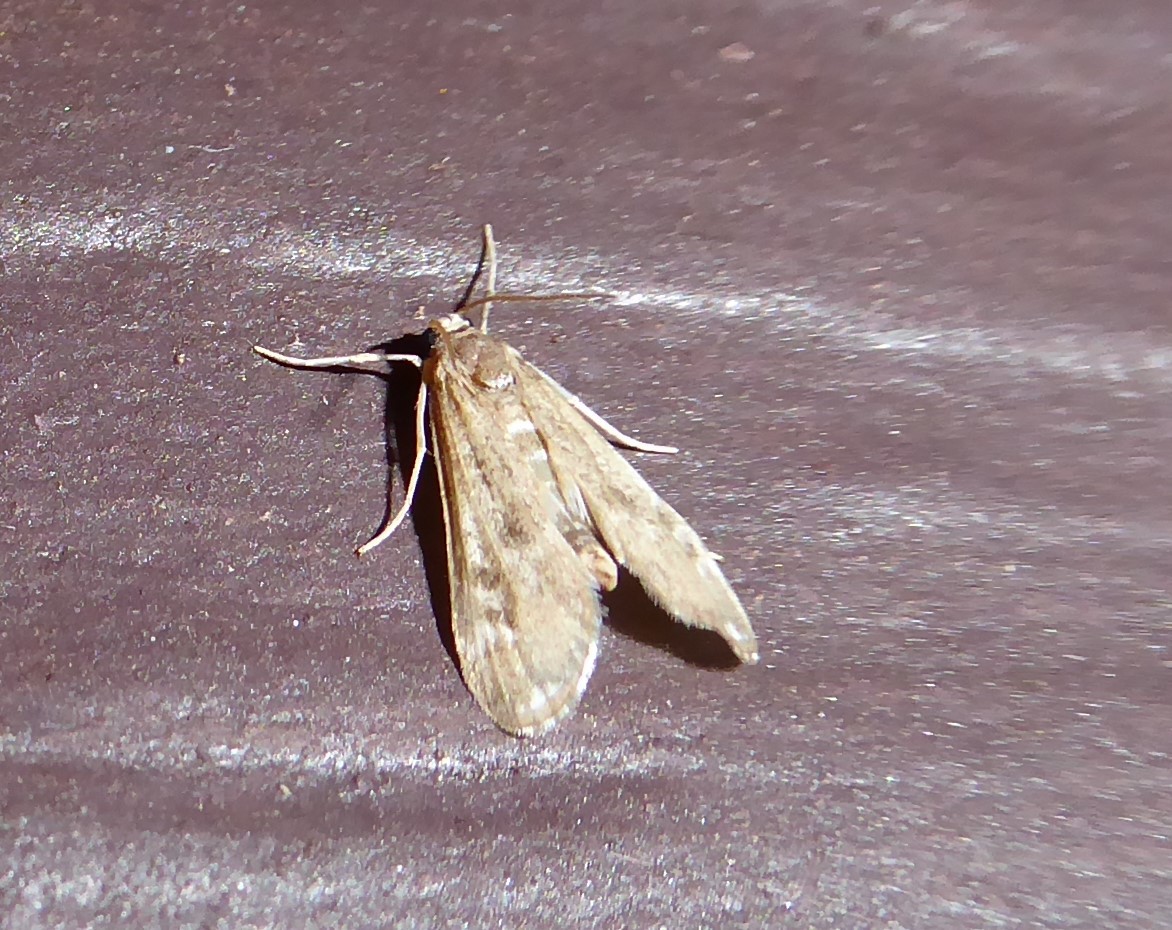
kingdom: Animalia
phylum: Arthropoda
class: Insecta
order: Lepidoptera
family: Crambidae
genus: Hygraula
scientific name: Hygraula nitens
